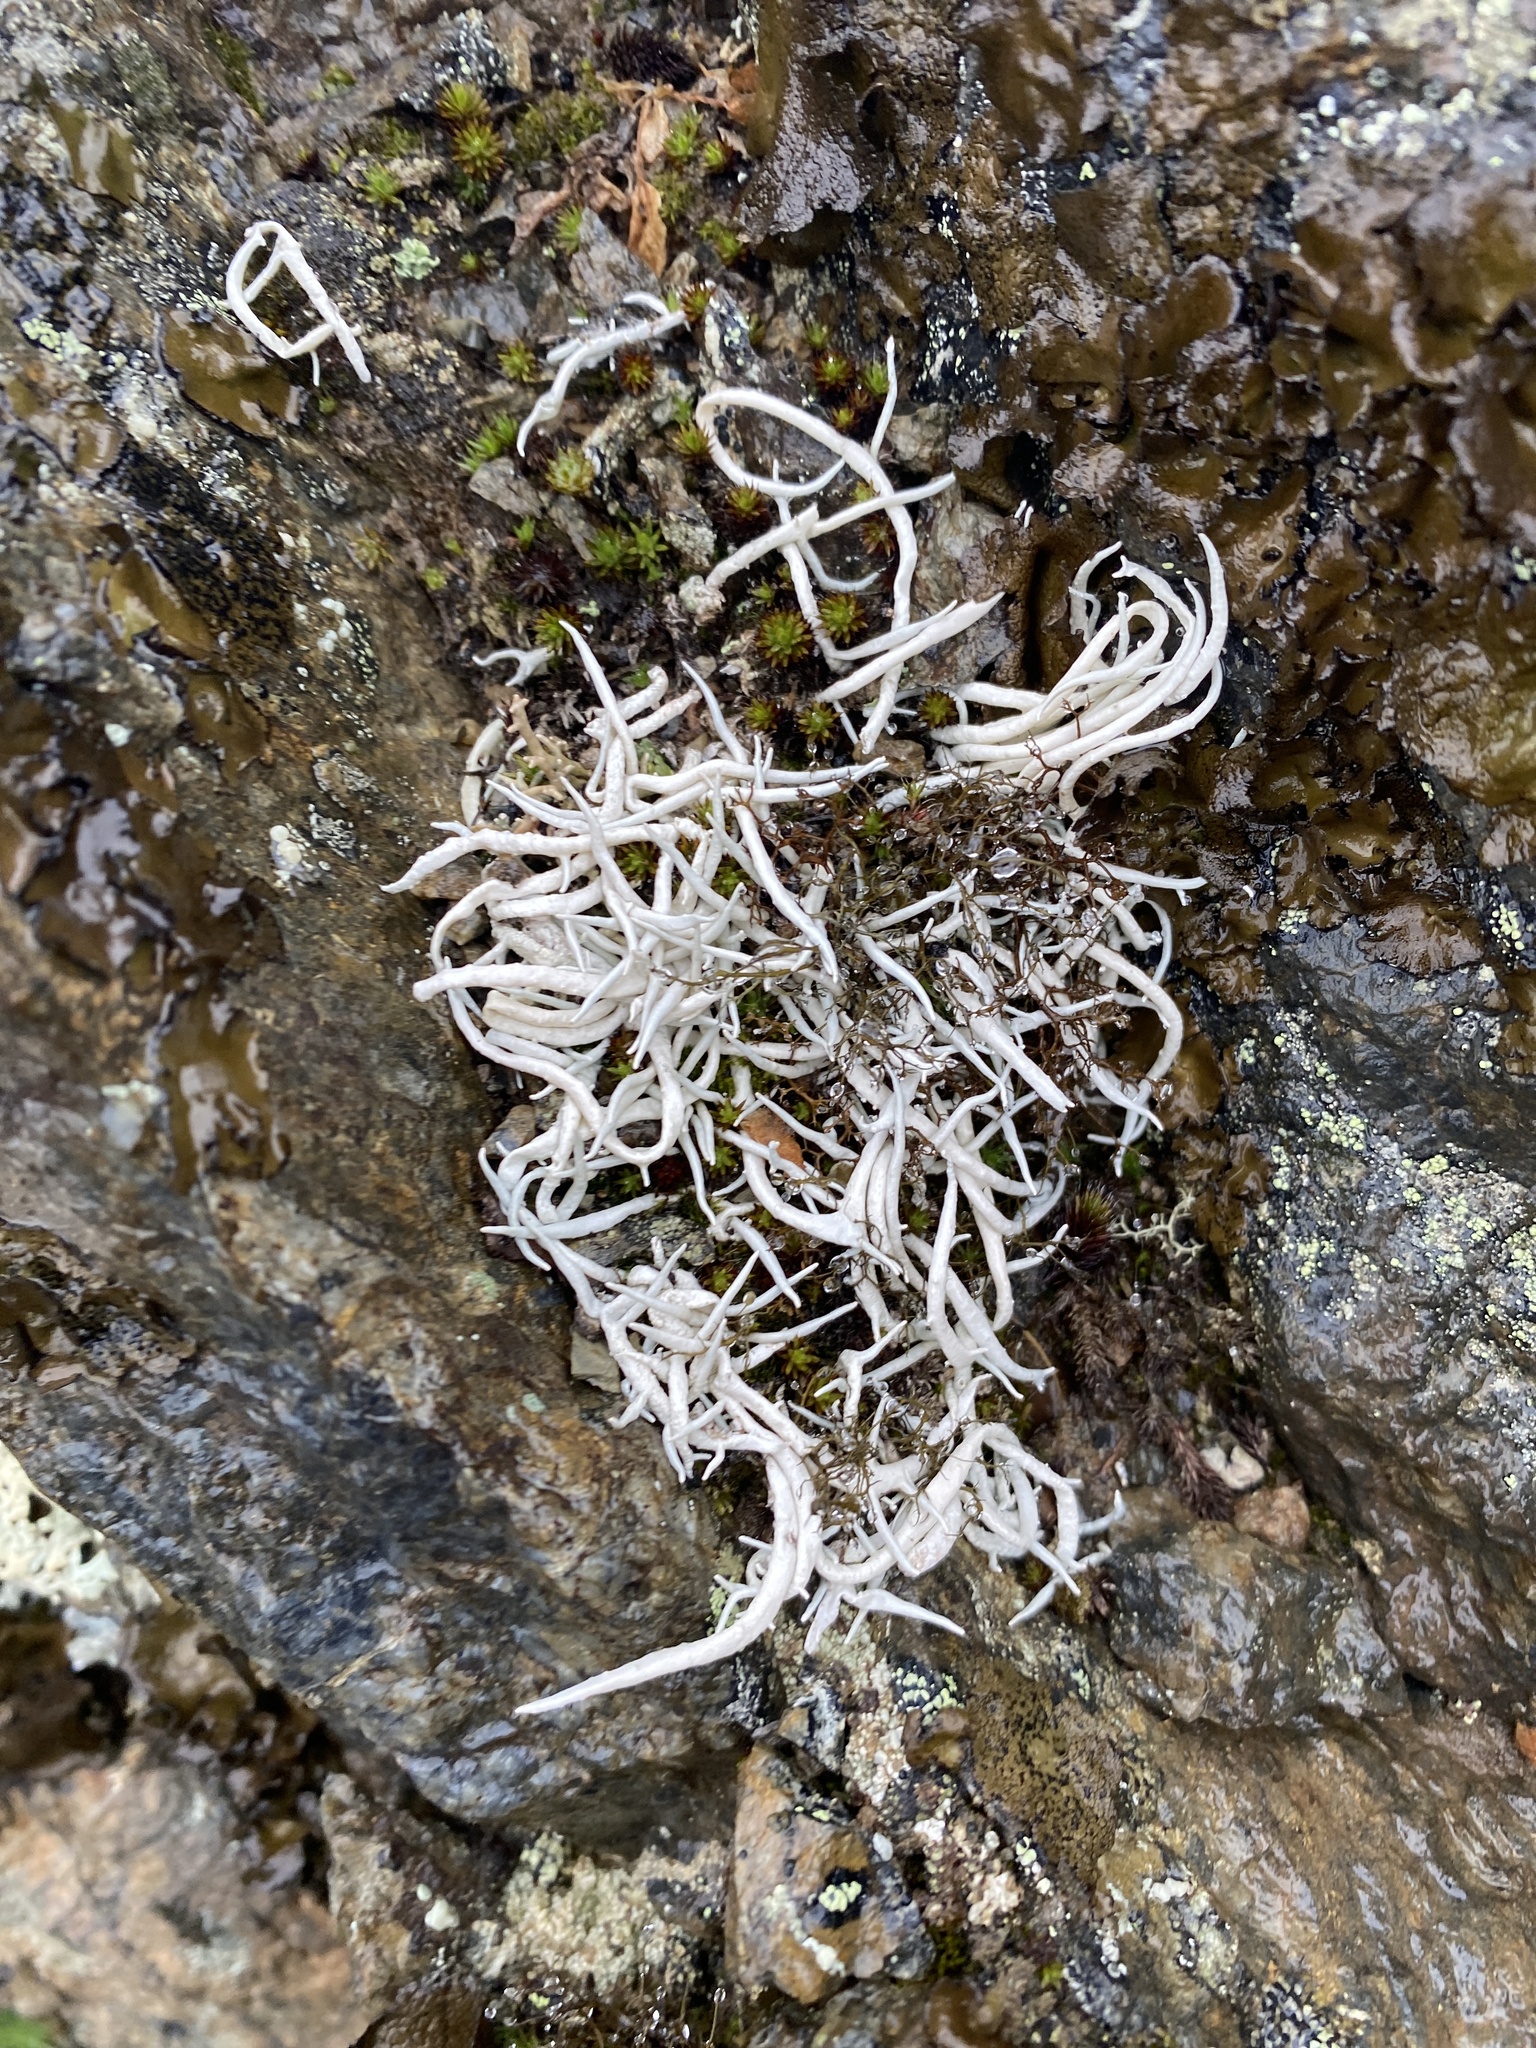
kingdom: Fungi
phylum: Ascomycota
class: Lecanoromycetes
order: Pertusariales
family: Icmadophilaceae
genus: Thamnolia
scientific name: Thamnolia vermicularis
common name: Whiteworm lichen
